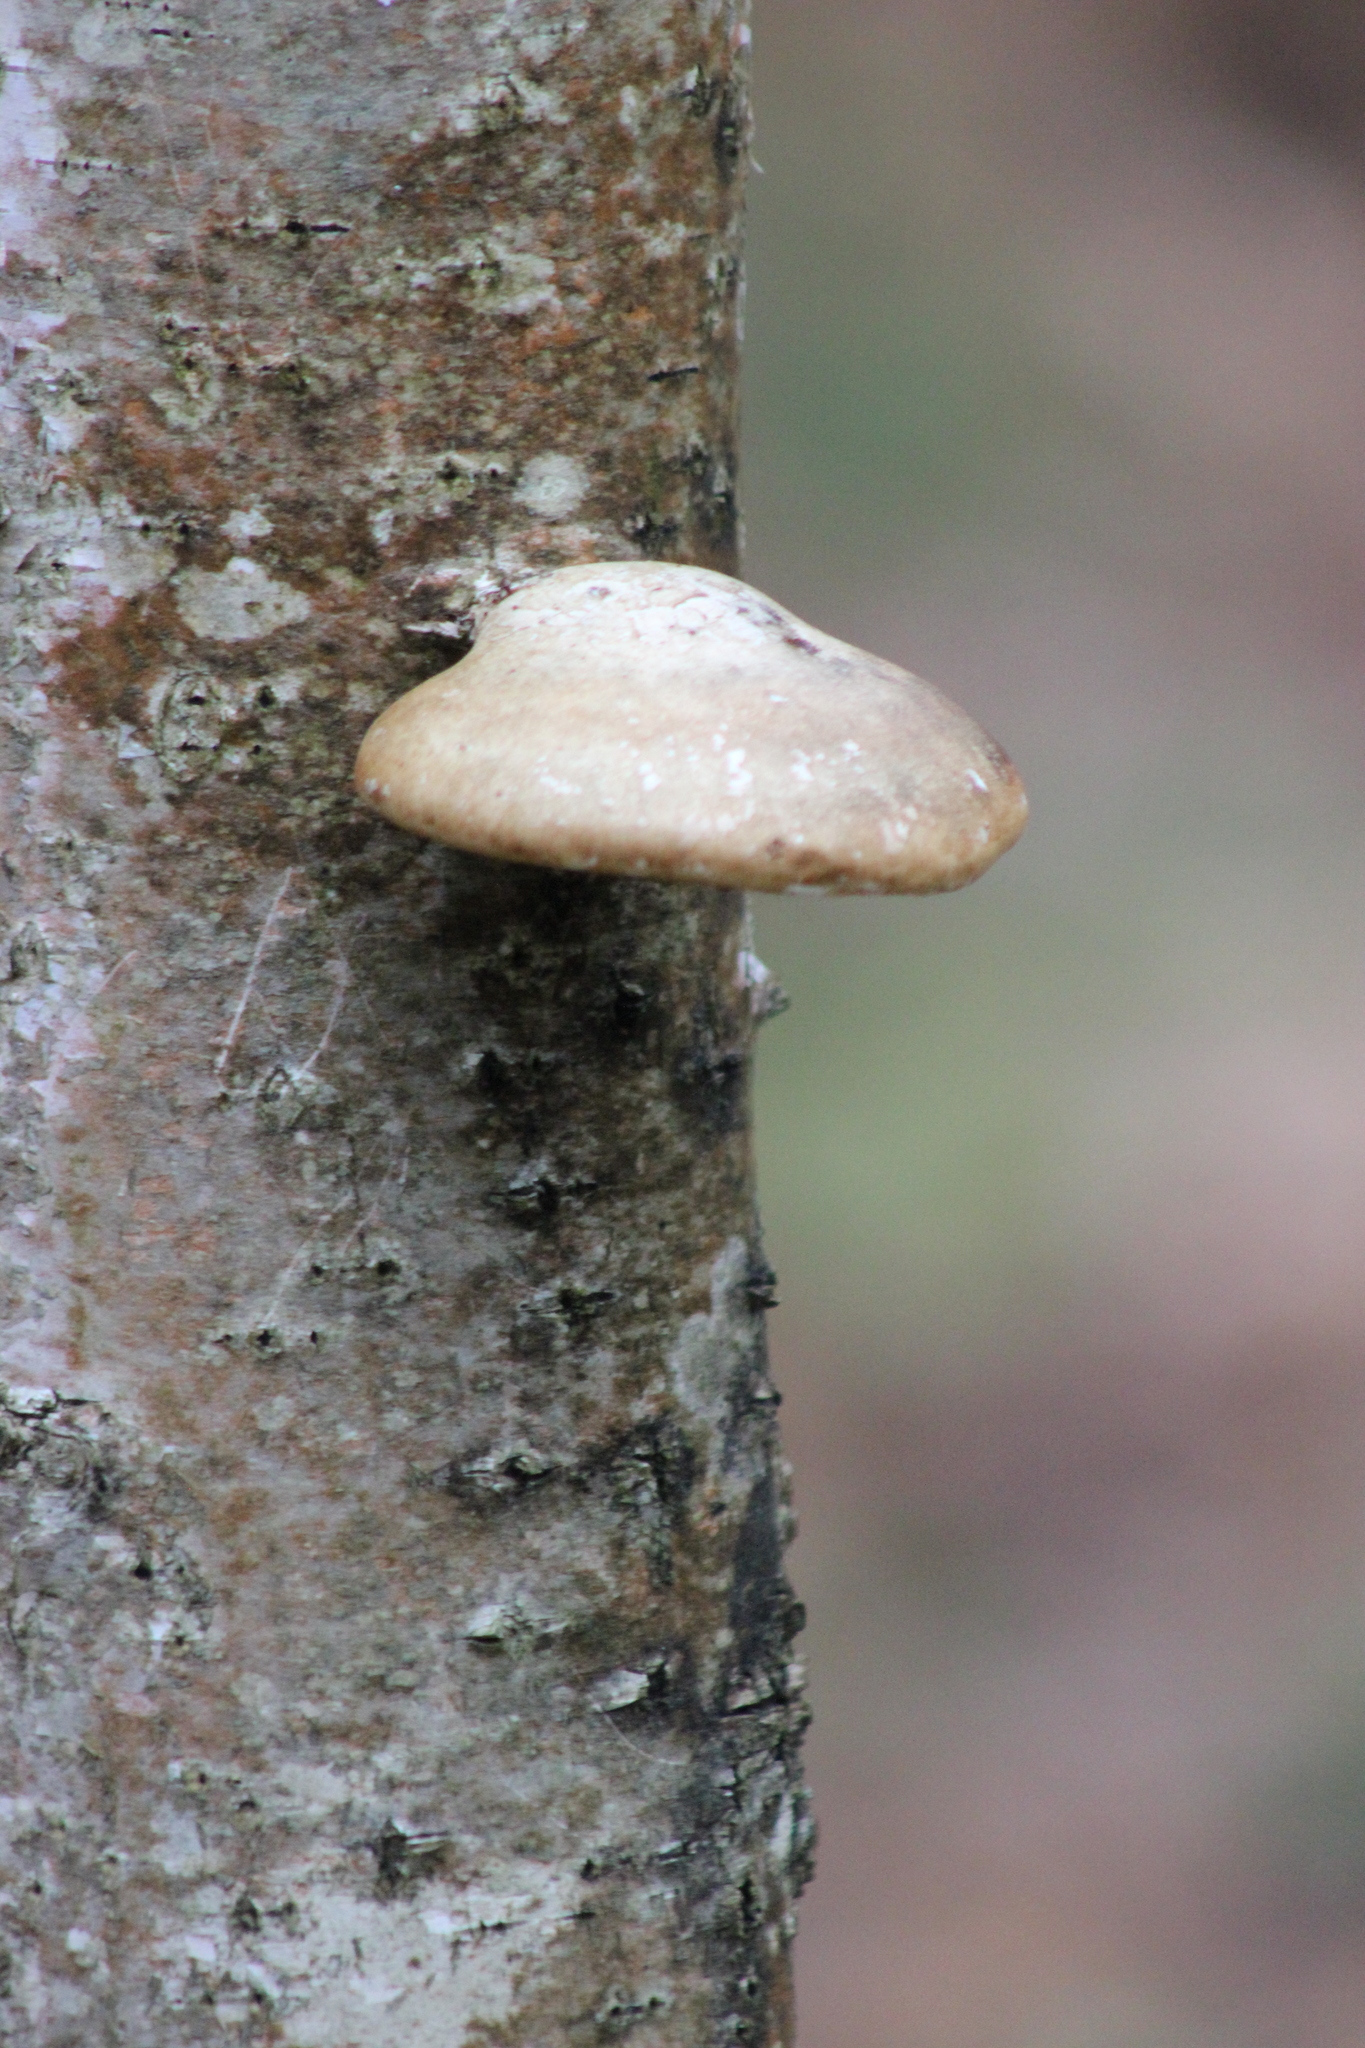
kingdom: Fungi
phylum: Basidiomycota
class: Agaricomycetes
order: Polyporales
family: Fomitopsidaceae
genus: Fomitopsis
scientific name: Fomitopsis betulina
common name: Birch polypore
